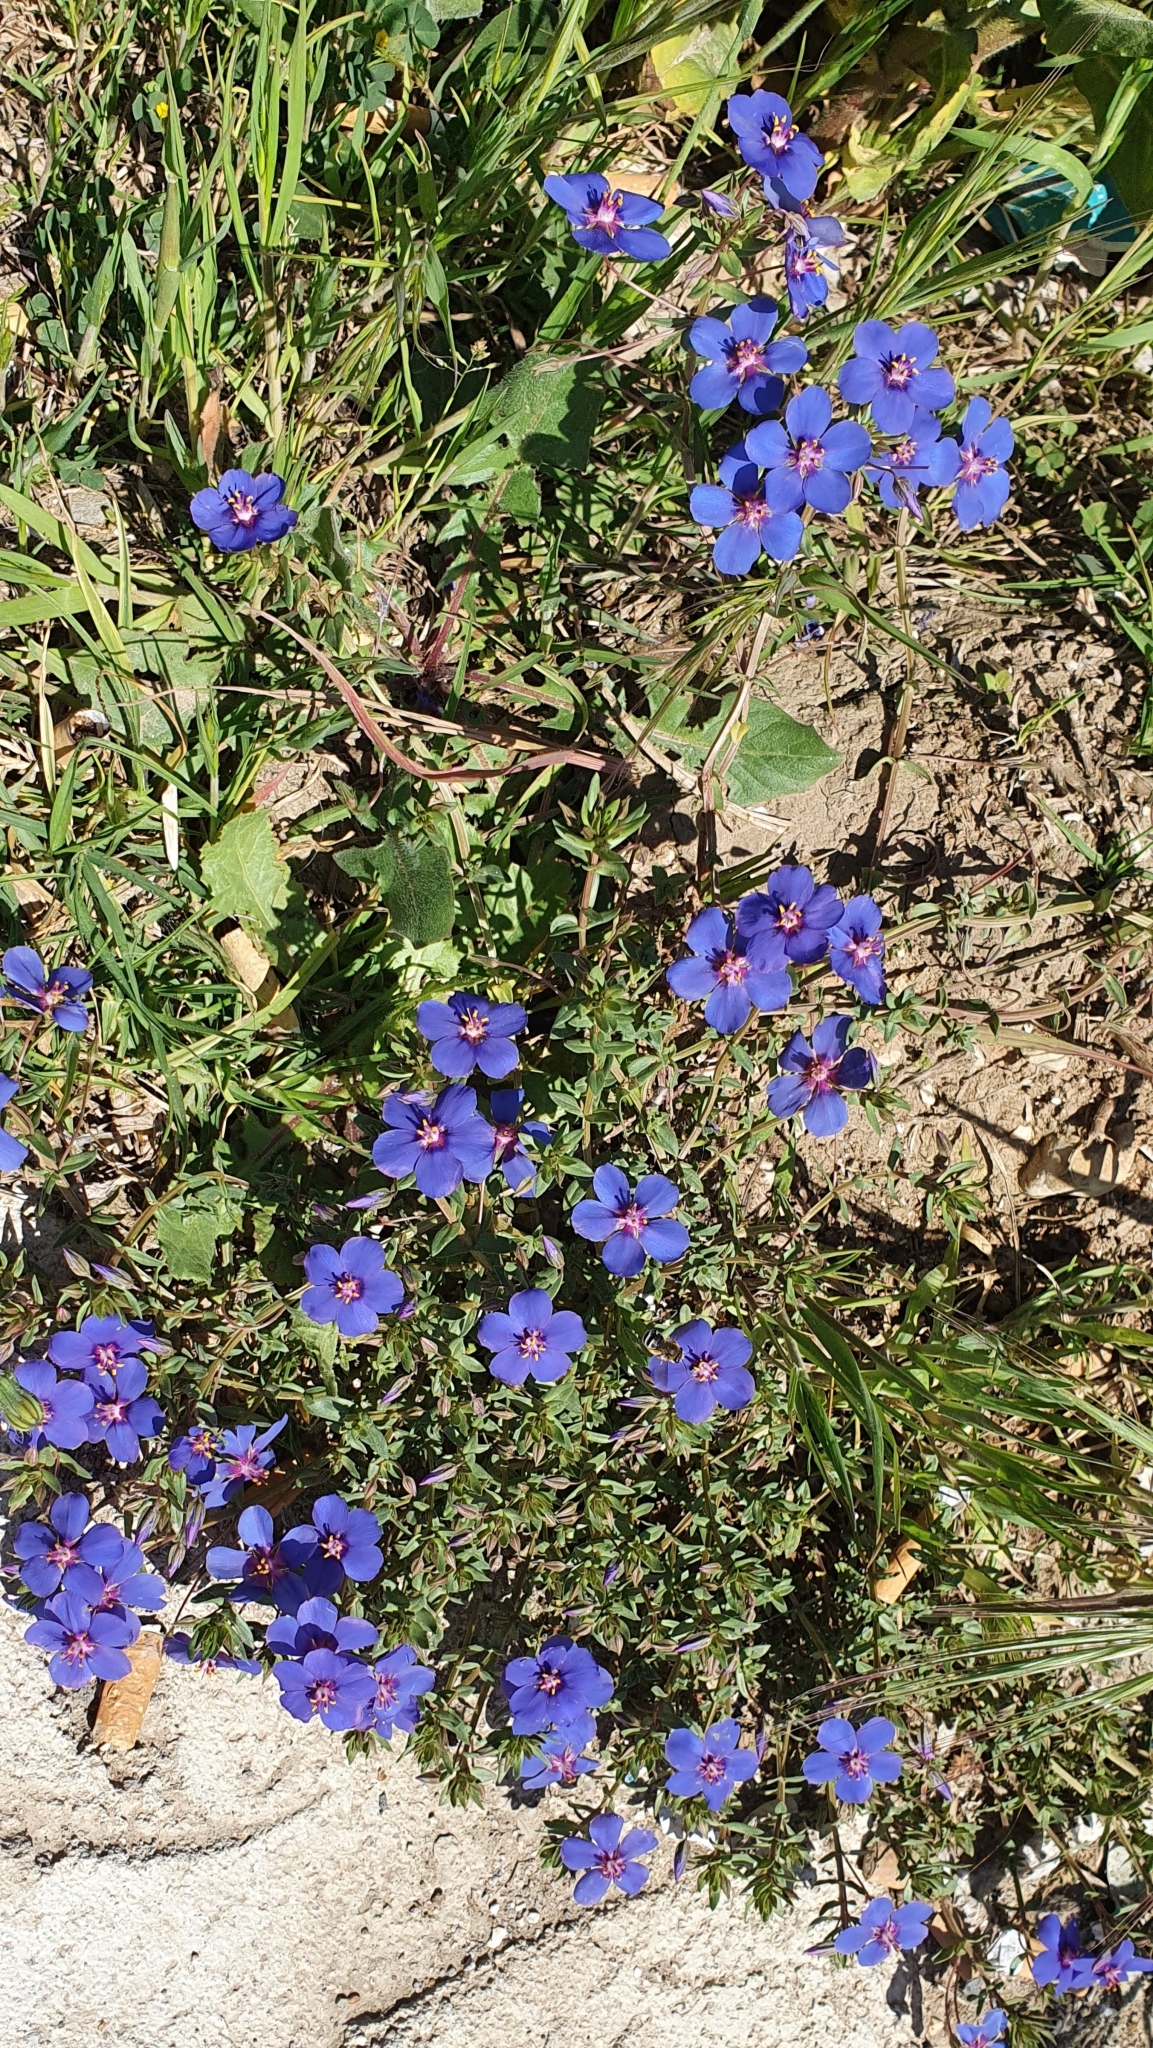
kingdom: Plantae
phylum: Tracheophyta
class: Magnoliopsida
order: Ericales
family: Primulaceae
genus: Lysimachia
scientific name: Lysimachia monelli
